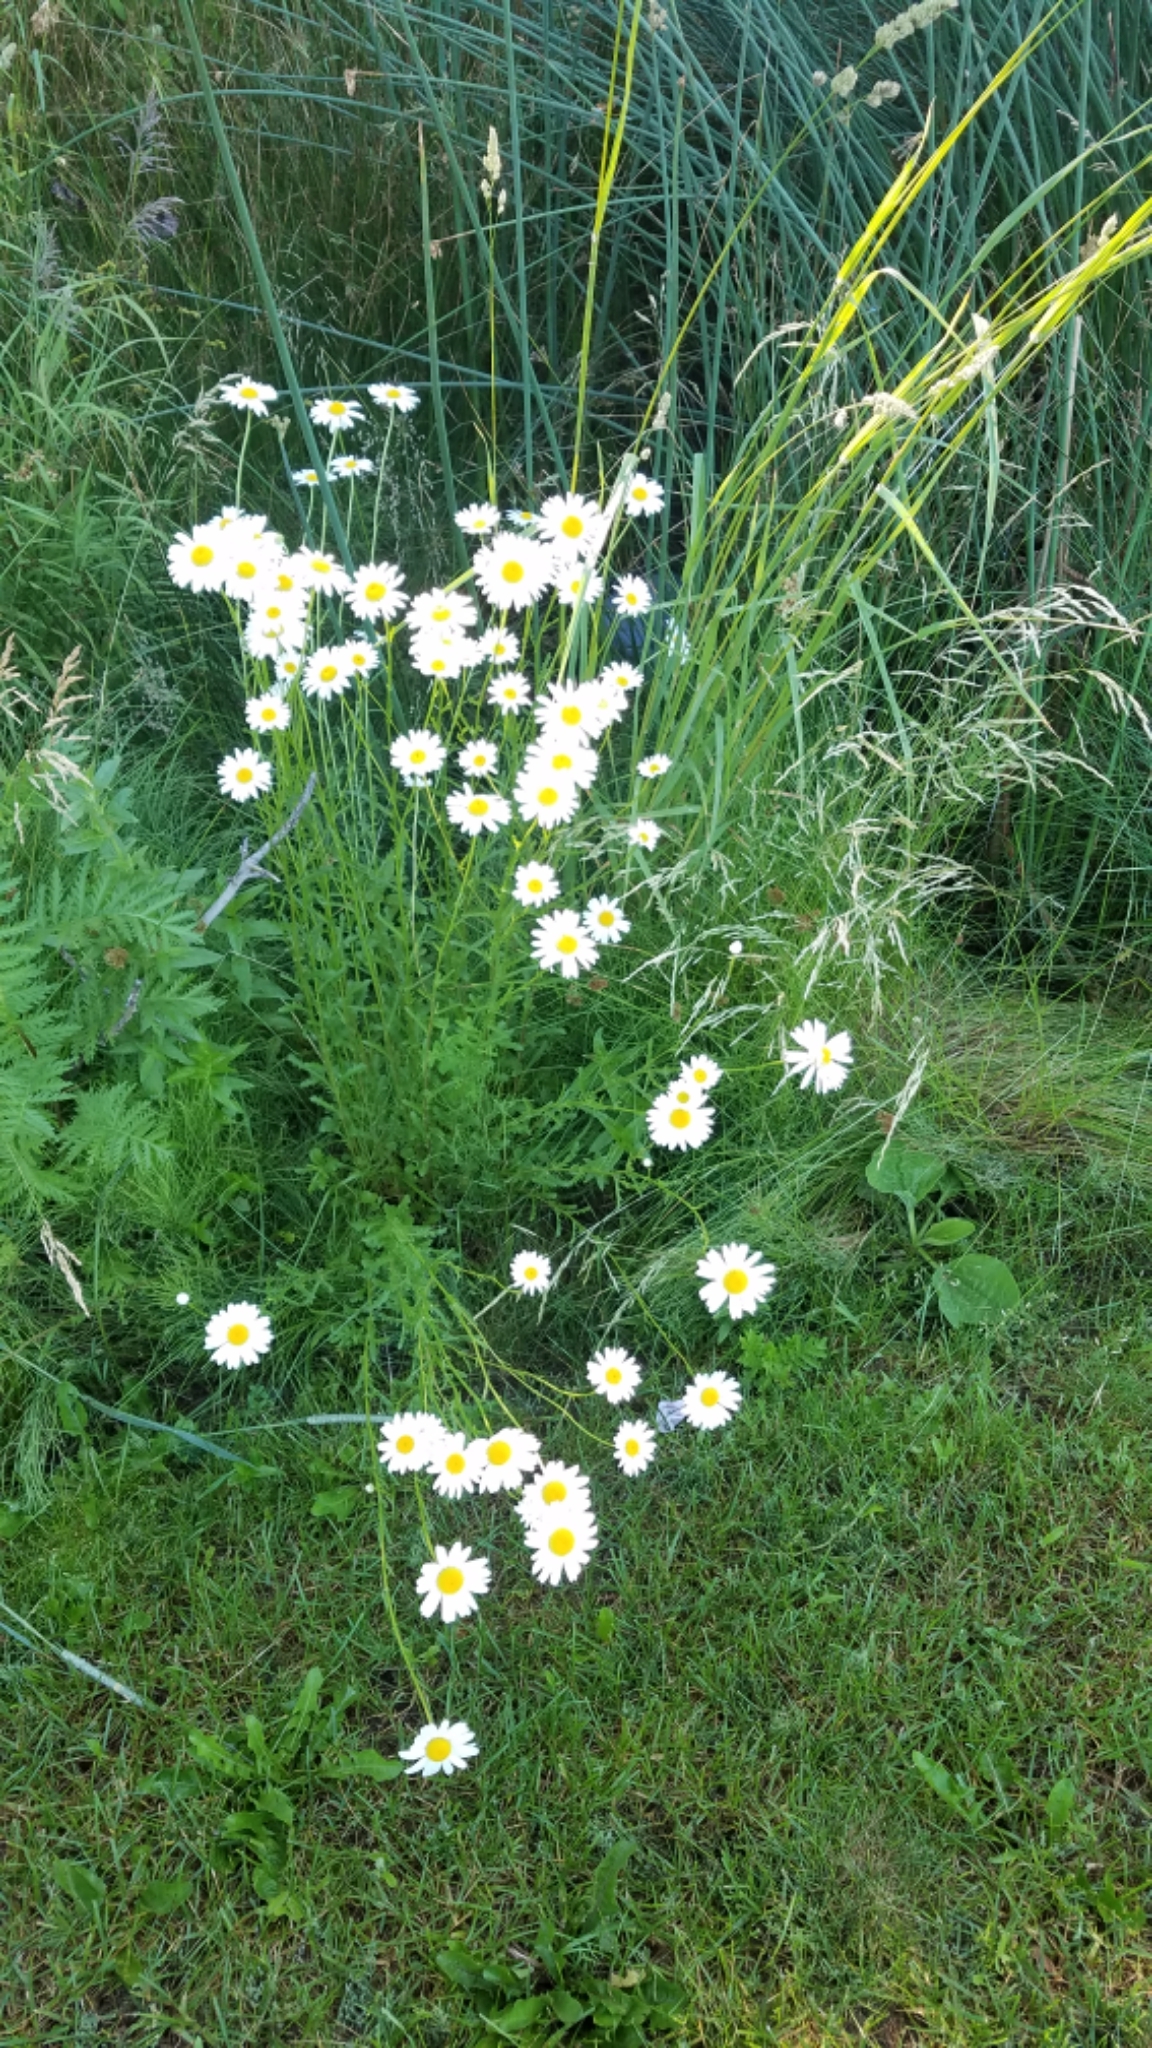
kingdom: Plantae
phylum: Tracheophyta
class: Magnoliopsida
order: Asterales
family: Asteraceae
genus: Leucanthemum
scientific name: Leucanthemum vulgare
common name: Oxeye daisy
